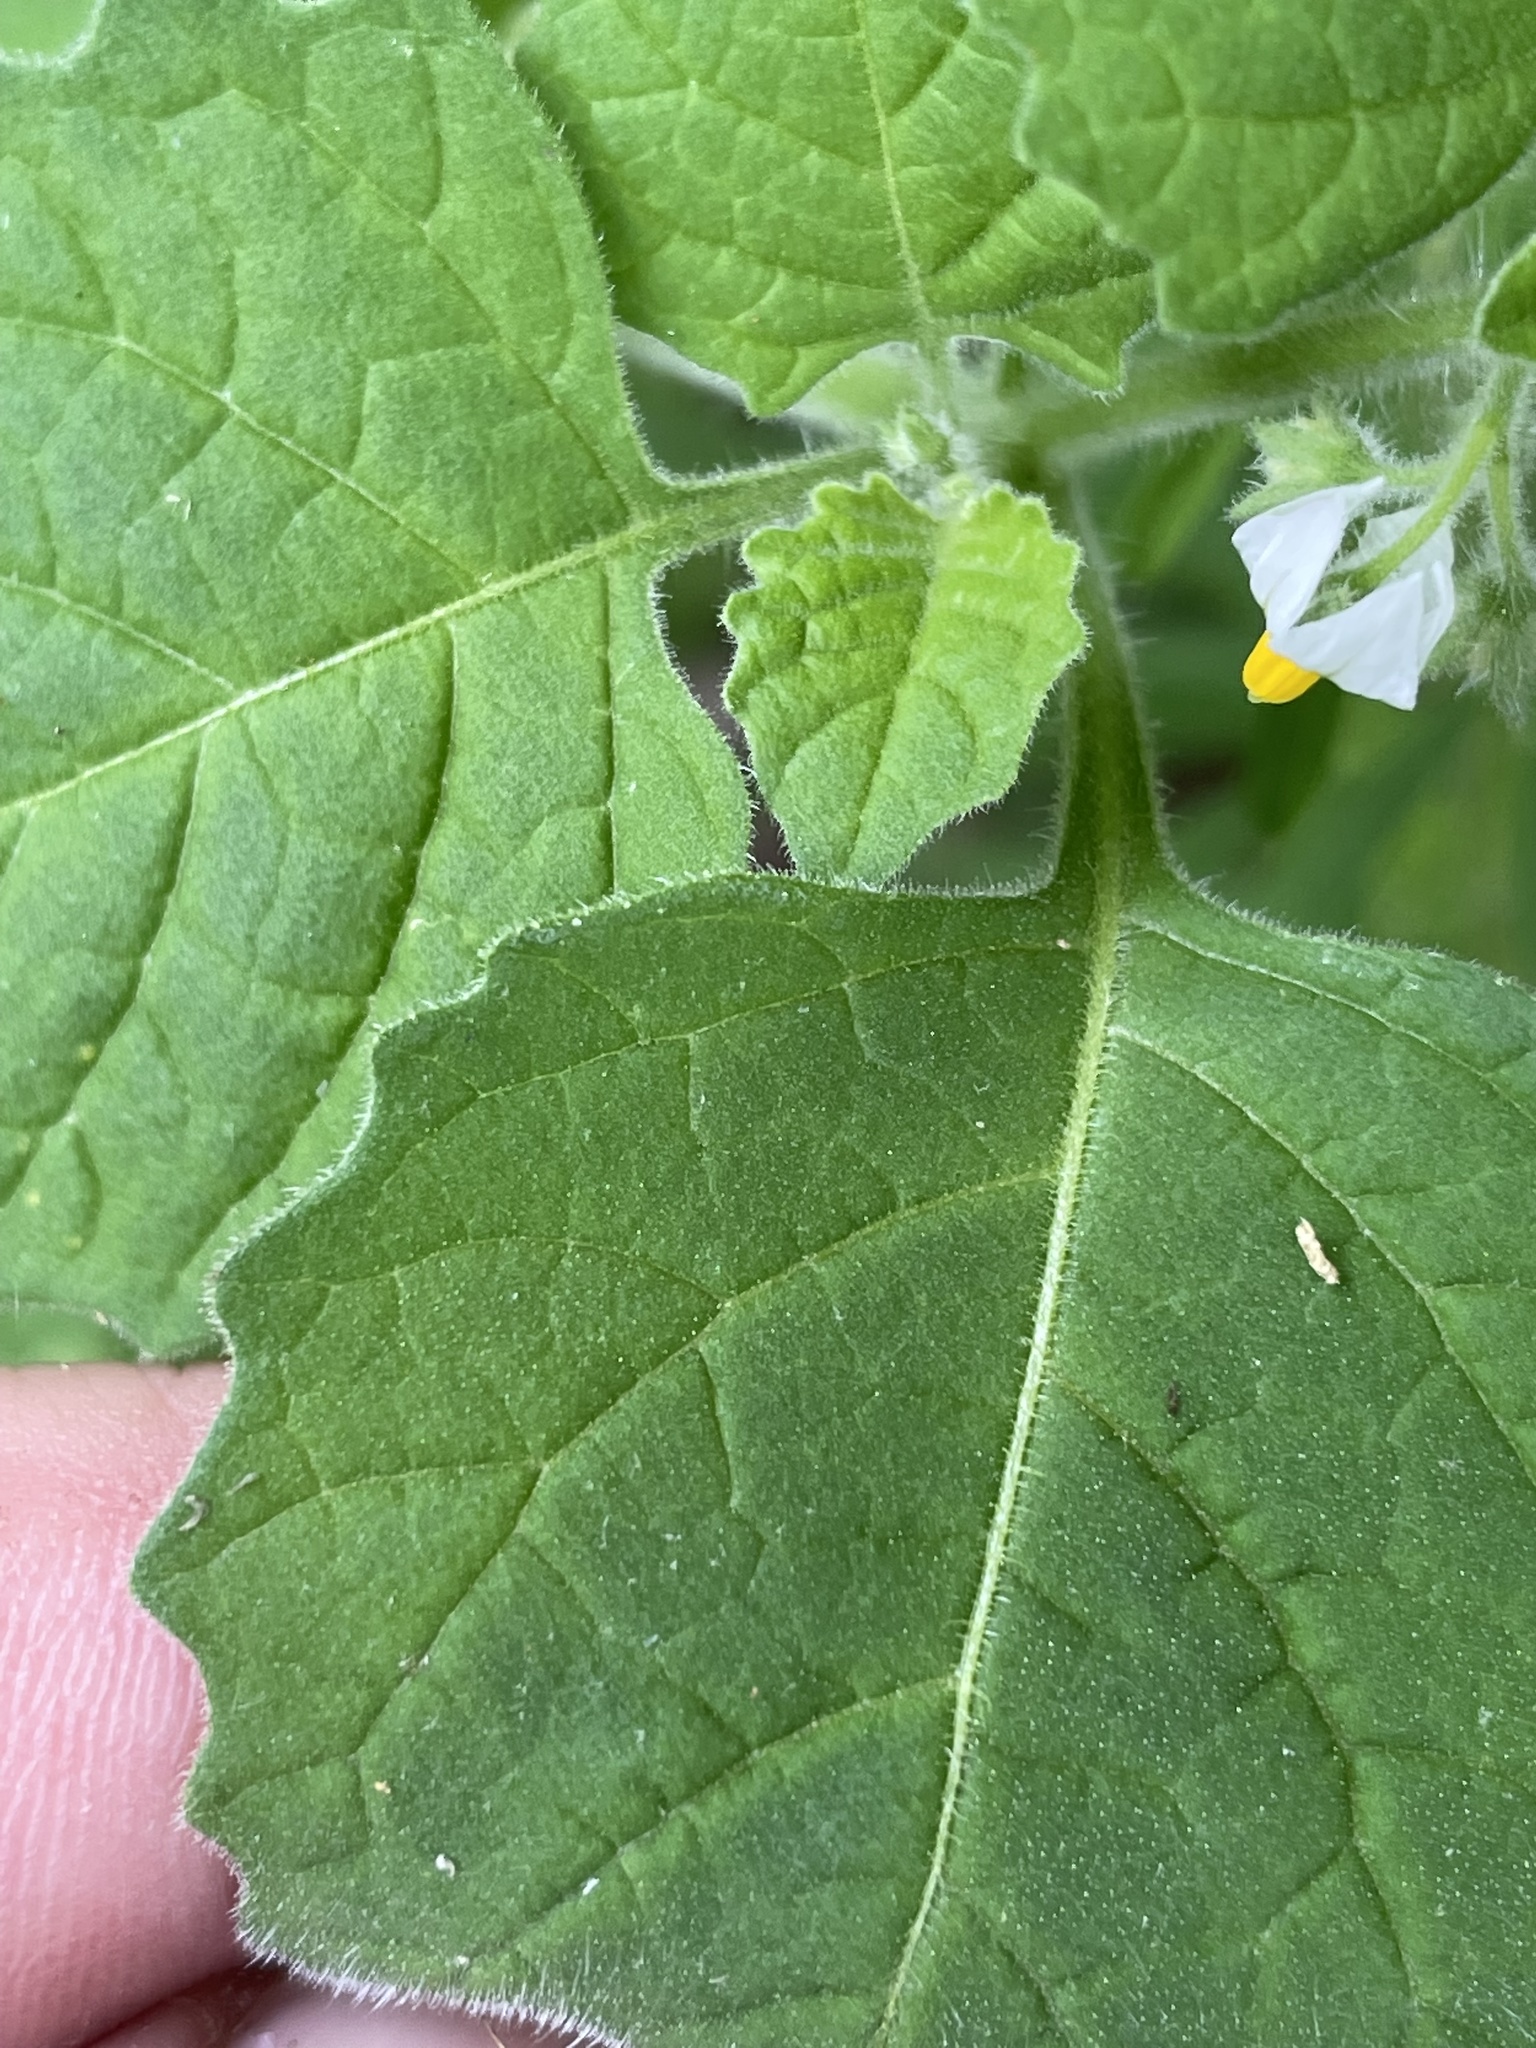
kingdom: Plantae
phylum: Tracheophyta
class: Magnoliopsida
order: Solanales
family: Solanaceae
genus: Solanum
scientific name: Solanum sarrachoides
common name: Leafy-fruited nightshade
